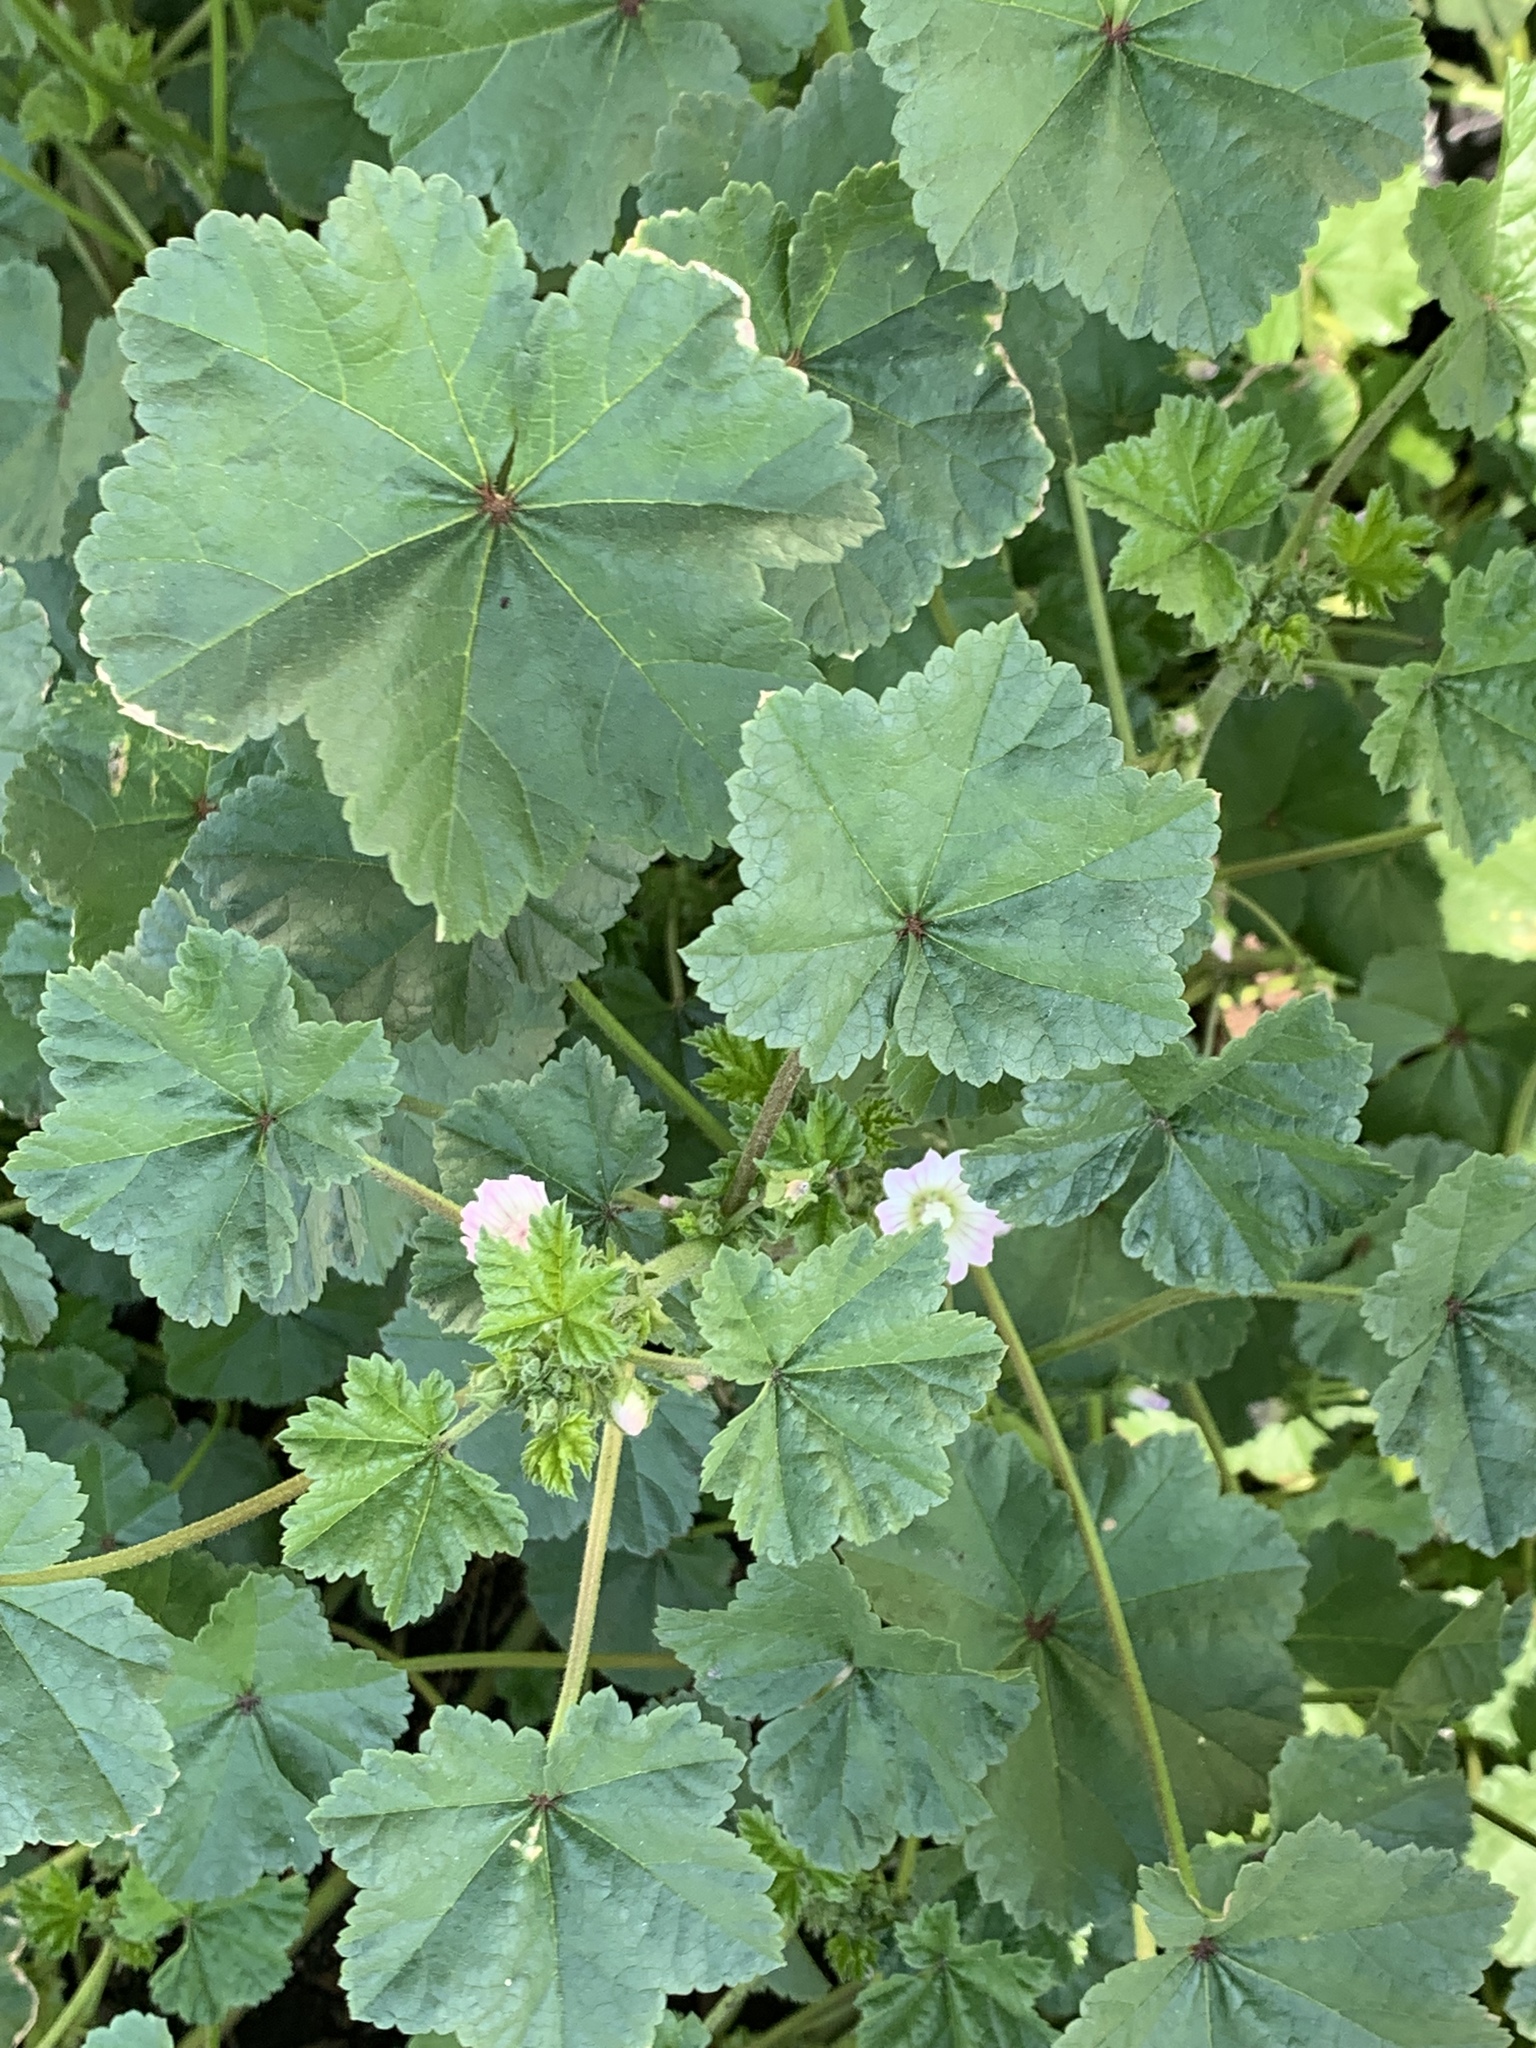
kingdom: Plantae
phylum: Tracheophyta
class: Magnoliopsida
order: Malvales
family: Malvaceae
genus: Malva
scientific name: Malva neglecta
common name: Common mallow
